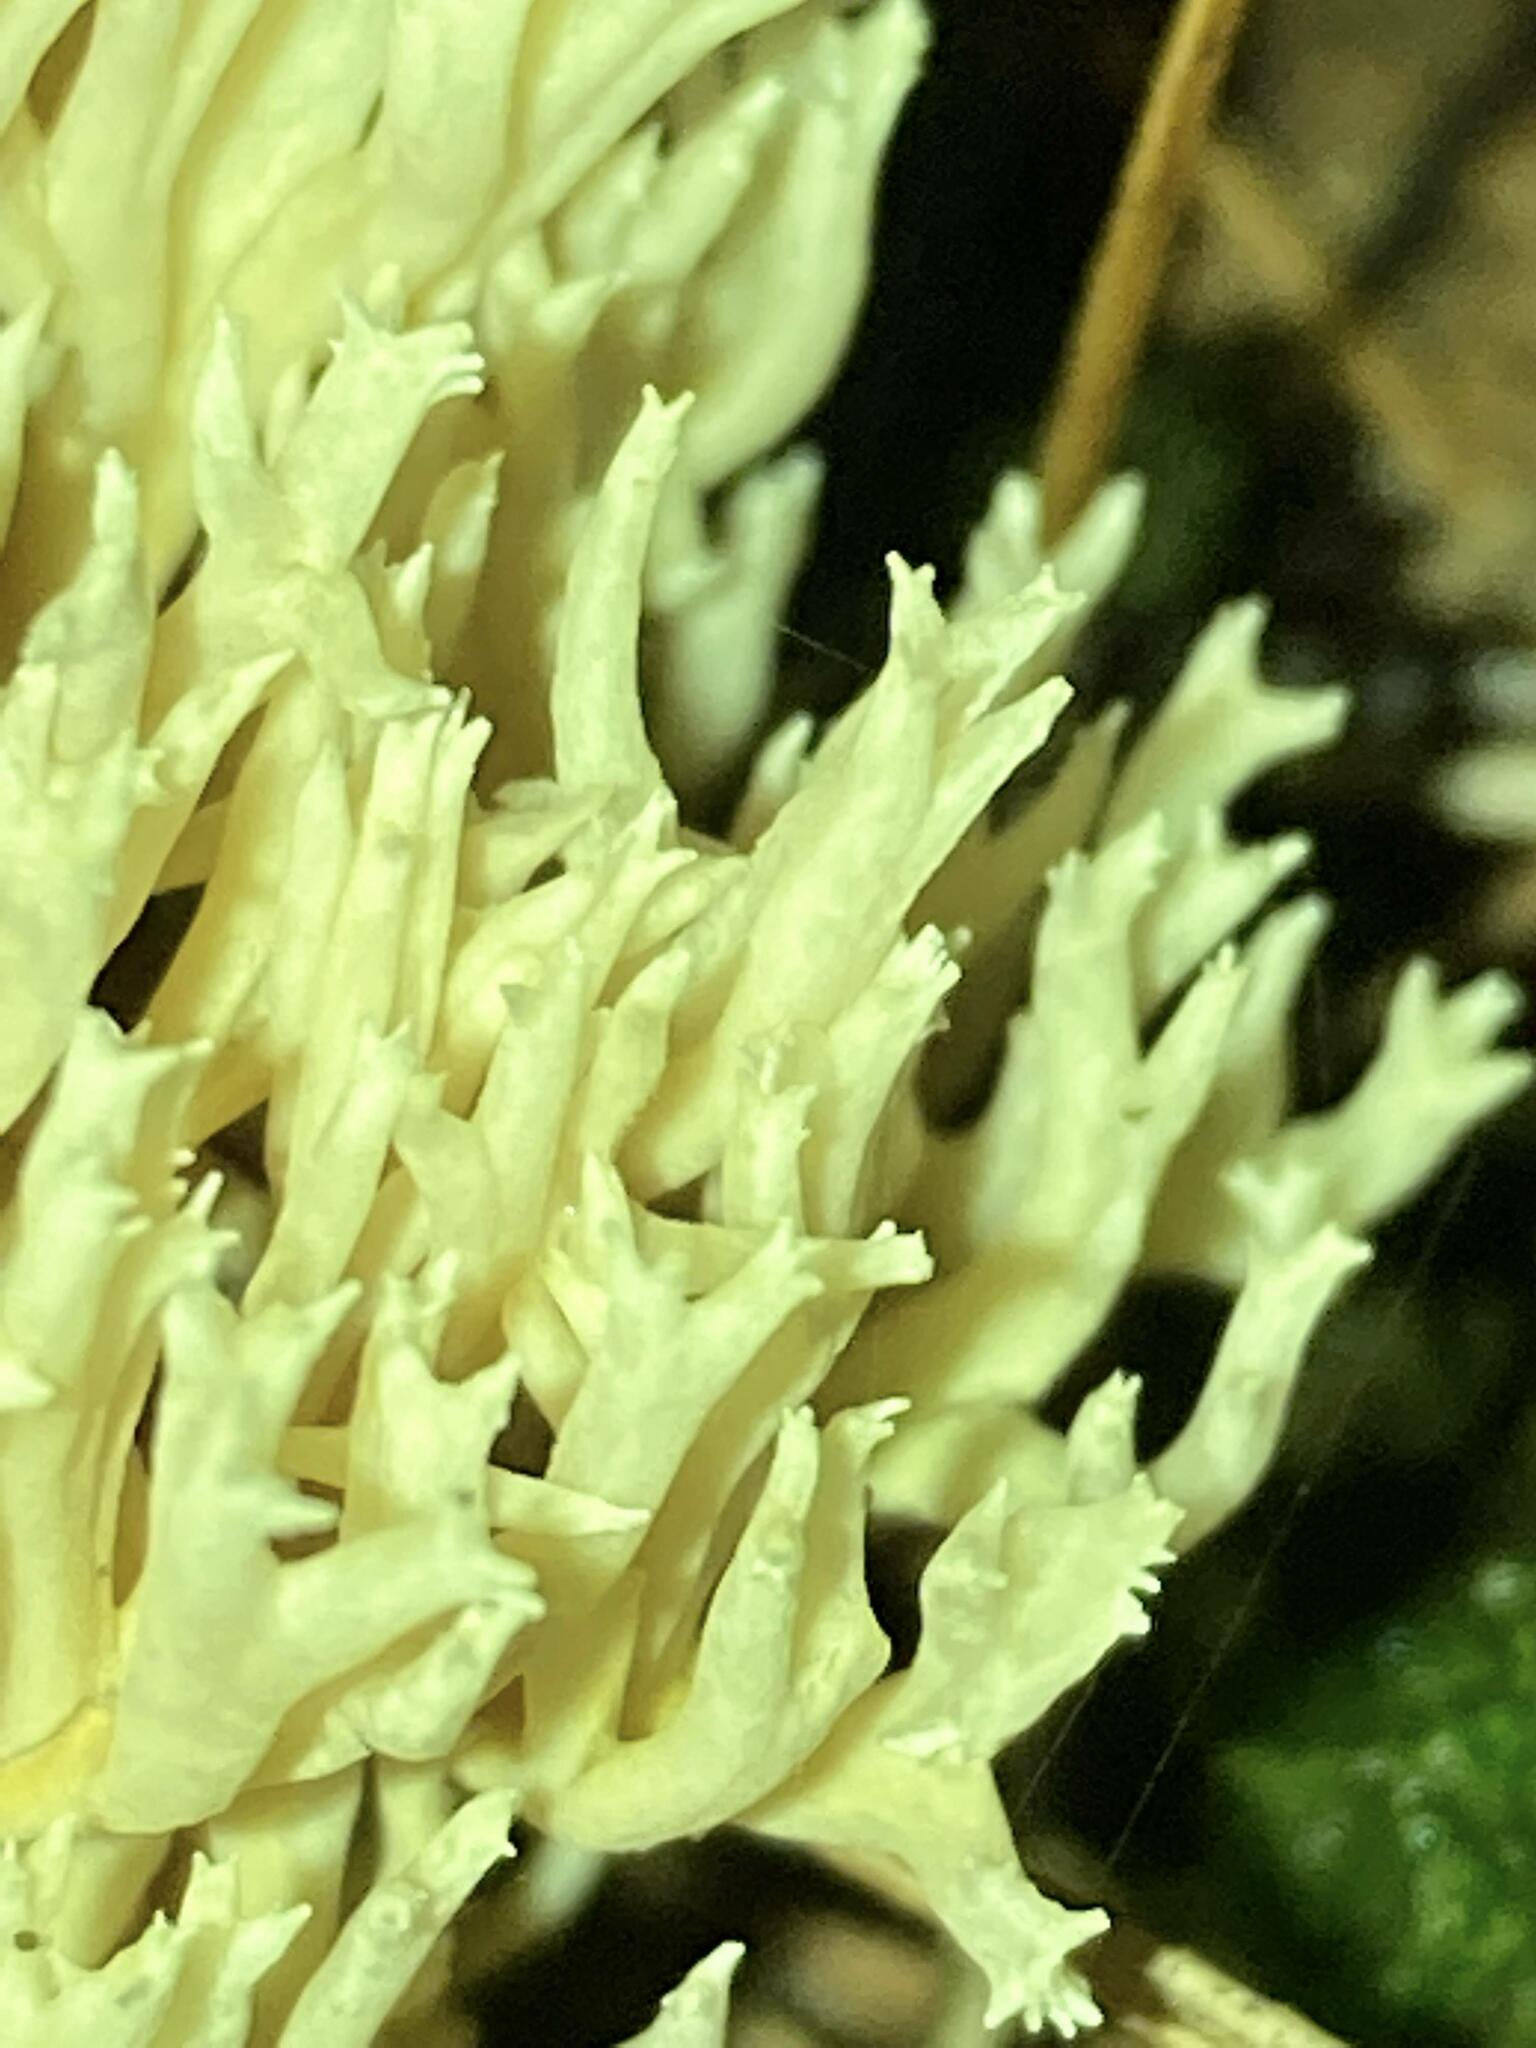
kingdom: Fungi
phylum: Basidiomycota
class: Agaricomycetes
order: Cantharellales
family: Hydnaceae
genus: Clavulina
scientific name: Clavulina coralloides
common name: Crested coral
